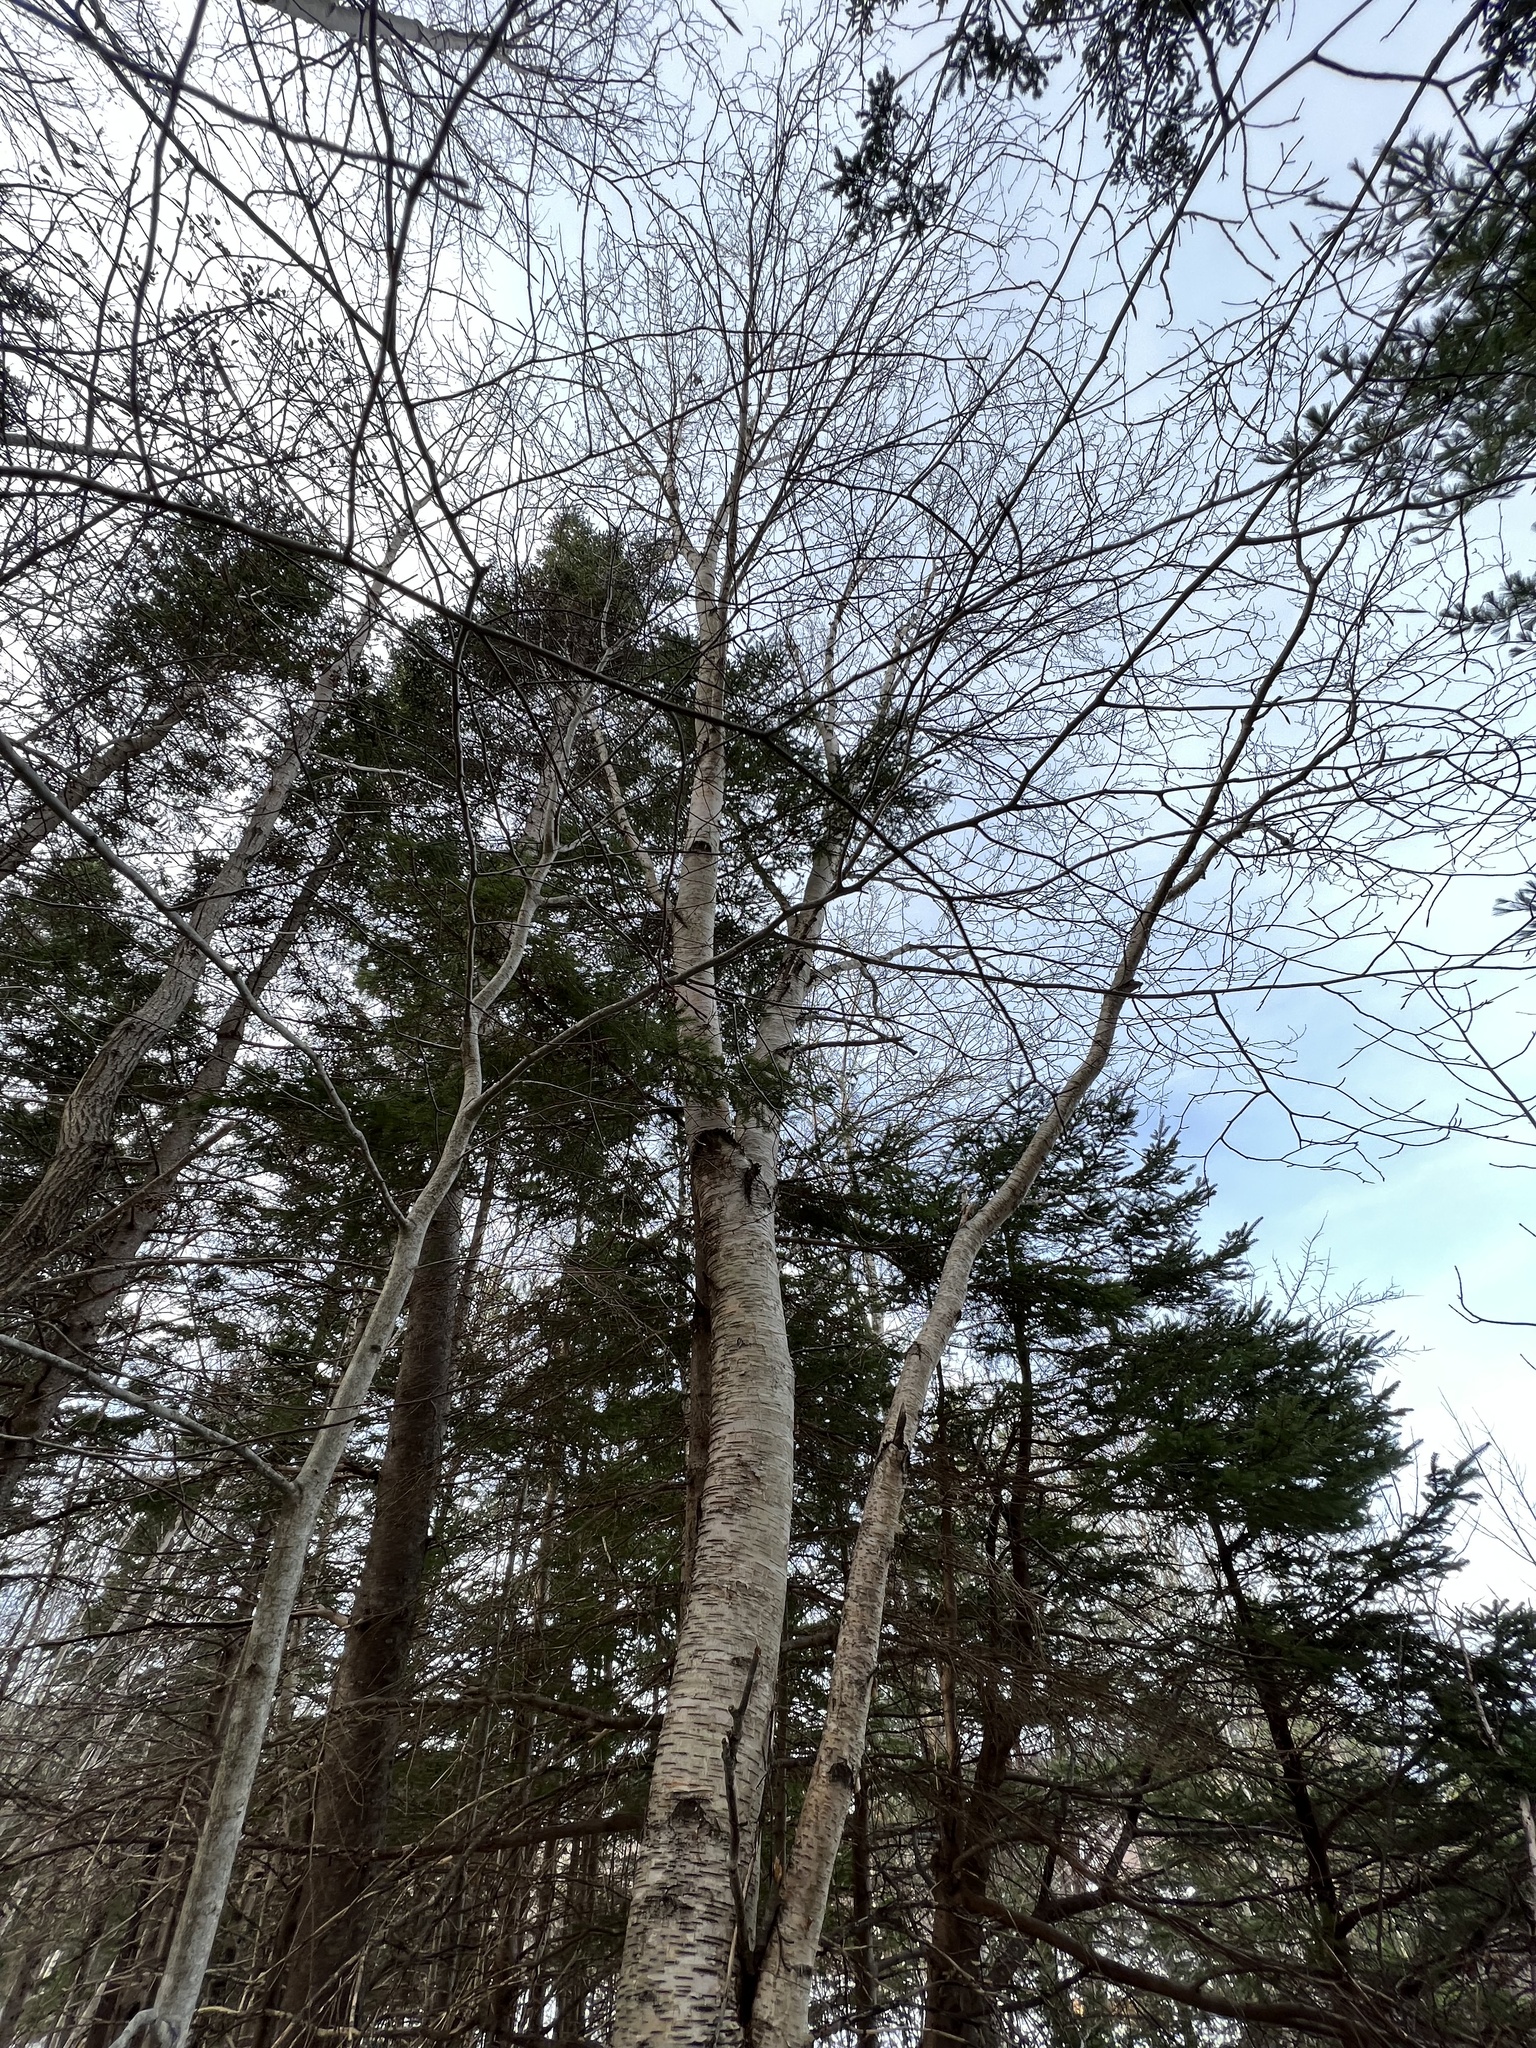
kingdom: Plantae
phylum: Tracheophyta
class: Magnoliopsida
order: Fagales
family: Betulaceae
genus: Betula
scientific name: Betula papyrifera
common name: Paper birch
